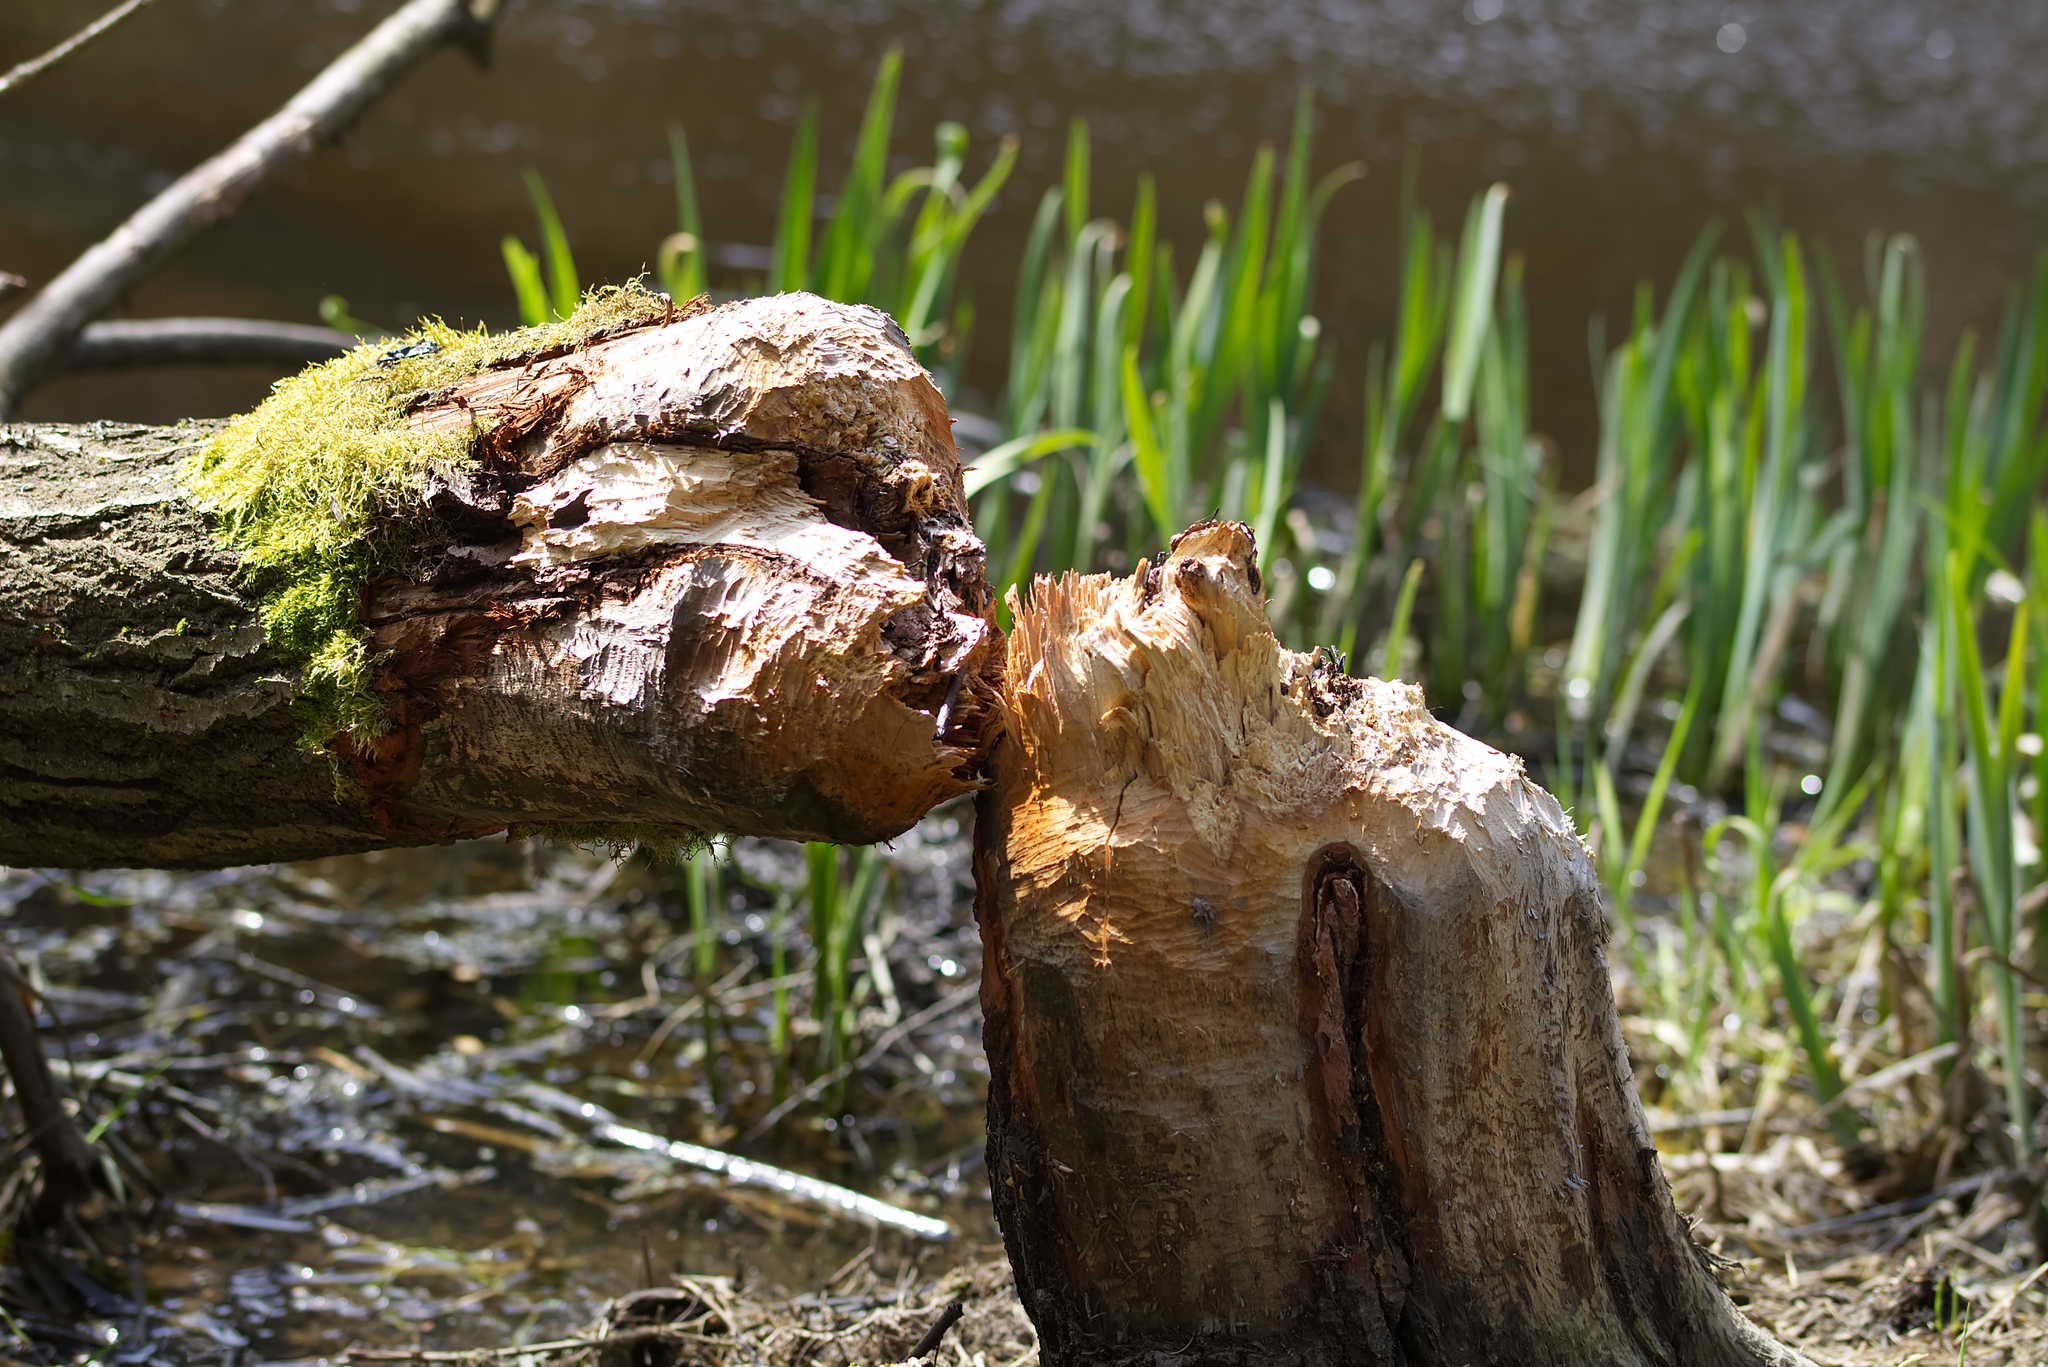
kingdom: Animalia
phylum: Chordata
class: Mammalia
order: Rodentia
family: Castoridae
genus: Castor
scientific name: Castor fiber
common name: Eurasian beaver
